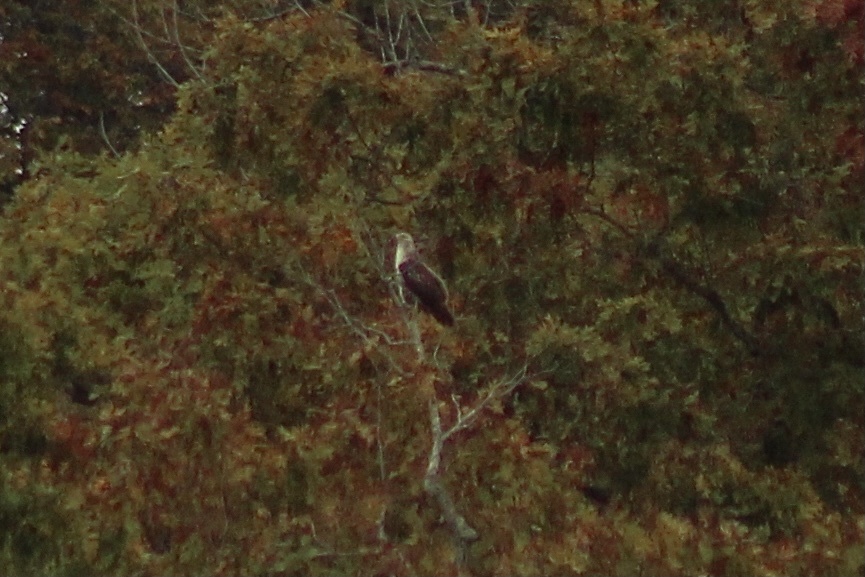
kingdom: Animalia
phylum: Chordata
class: Aves
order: Accipitriformes
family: Accipitridae
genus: Buteo
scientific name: Buteo jamaicensis
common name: Red-tailed hawk
